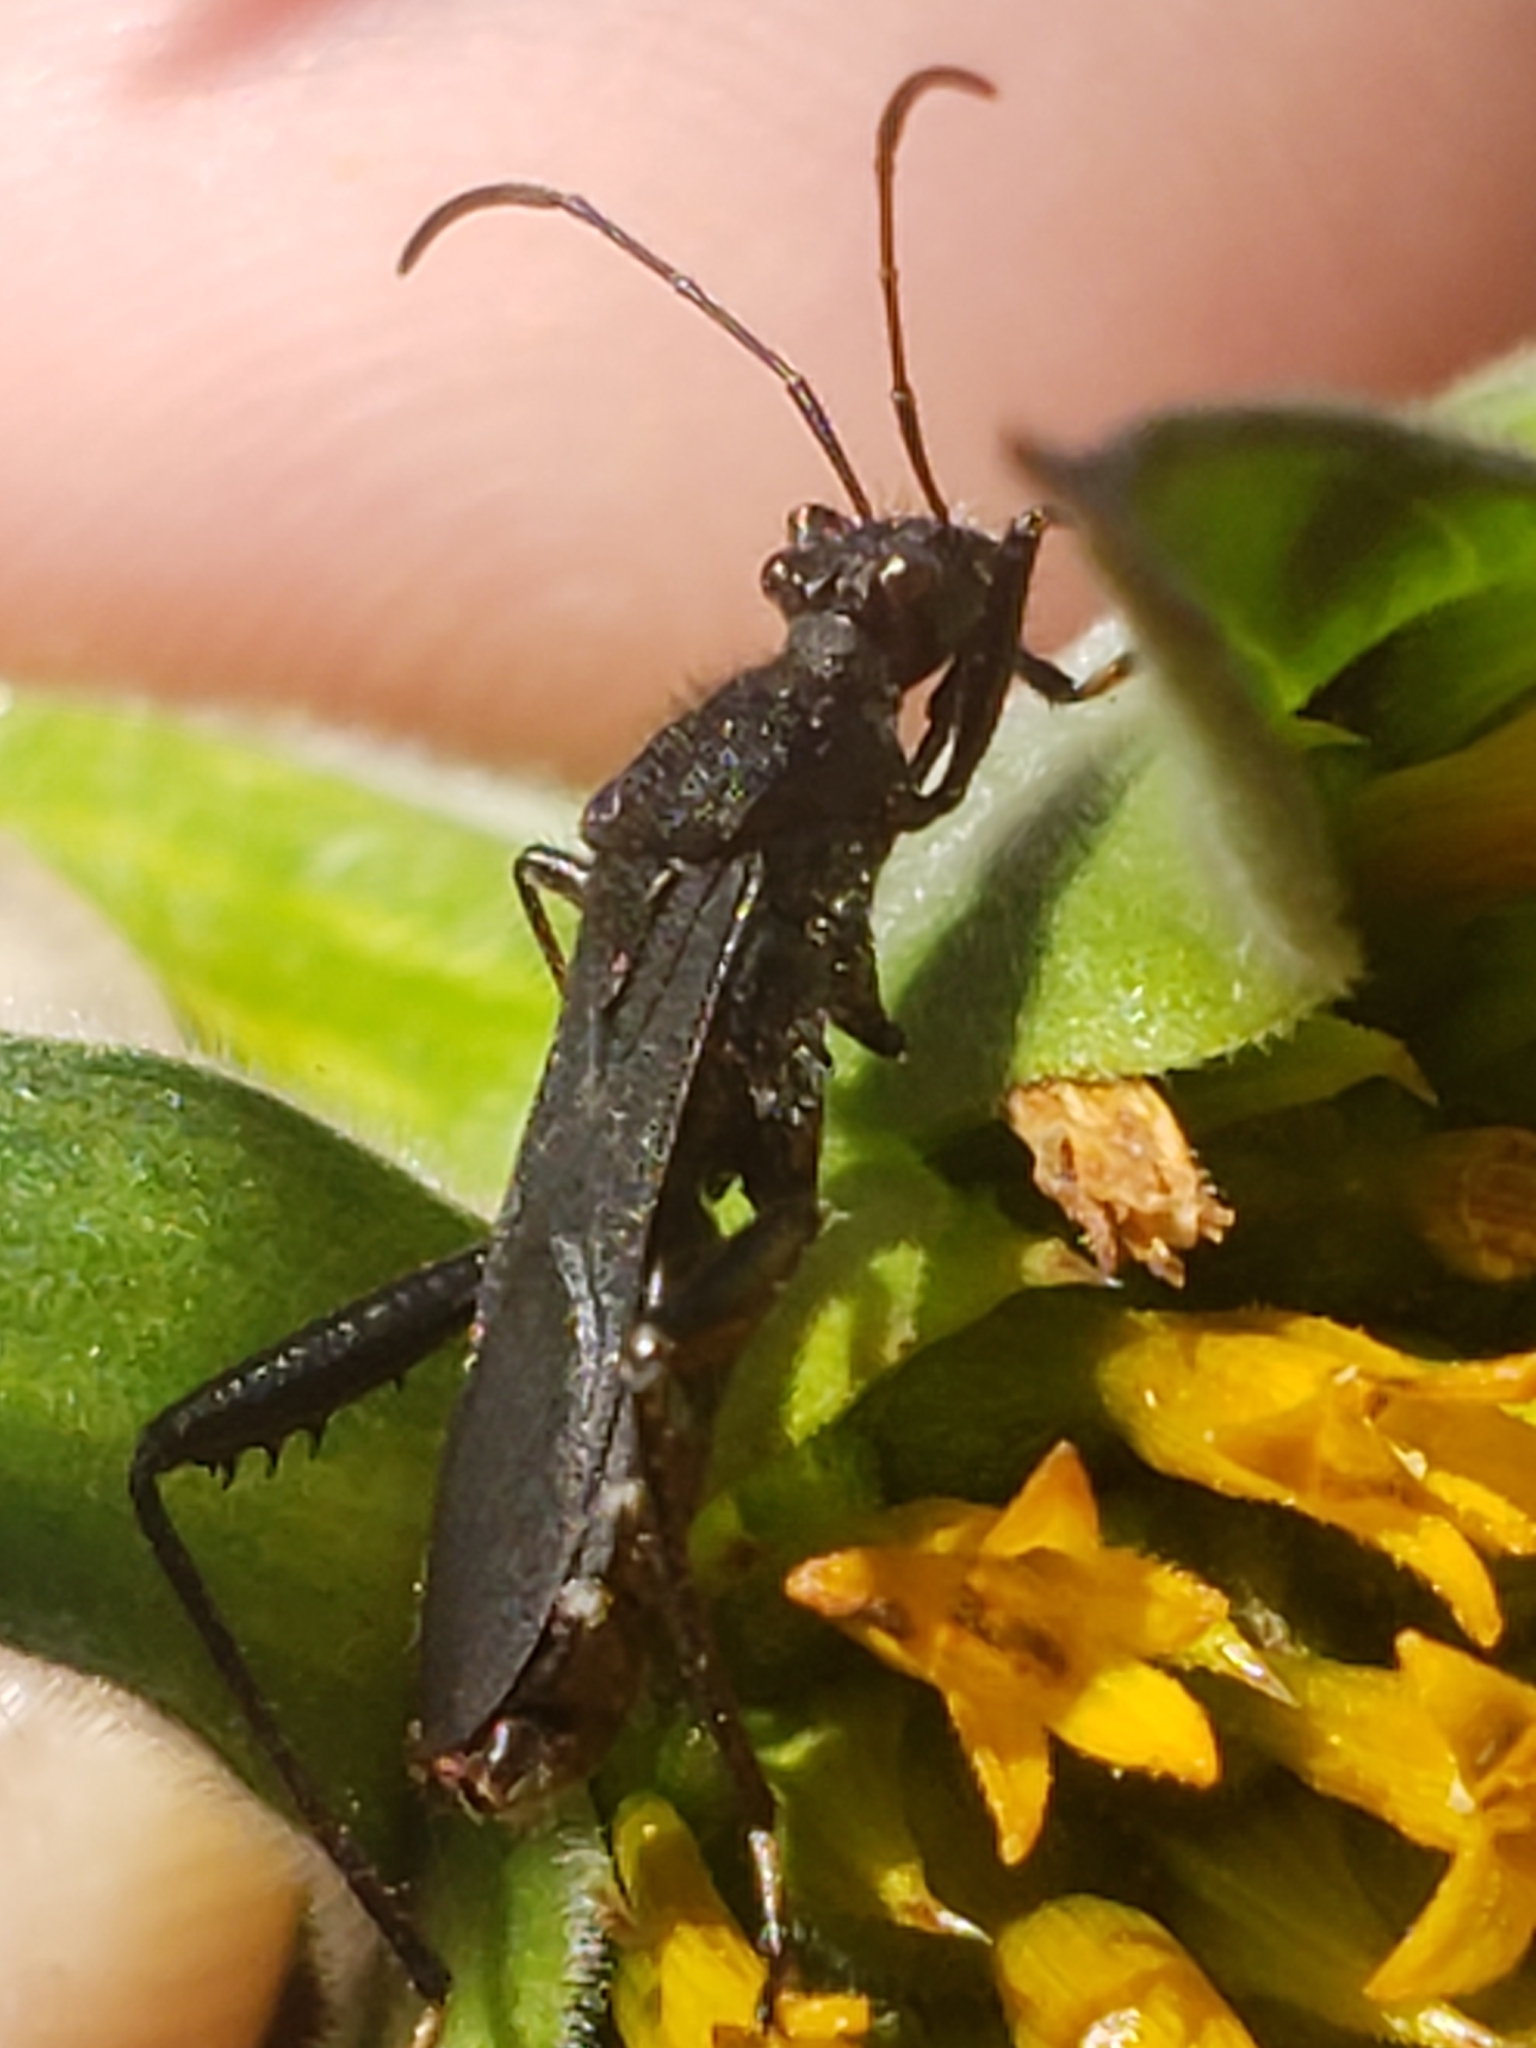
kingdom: Animalia
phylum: Arthropoda
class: Insecta
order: Hemiptera
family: Alydidae
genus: Alydus
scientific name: Alydus eurinus
